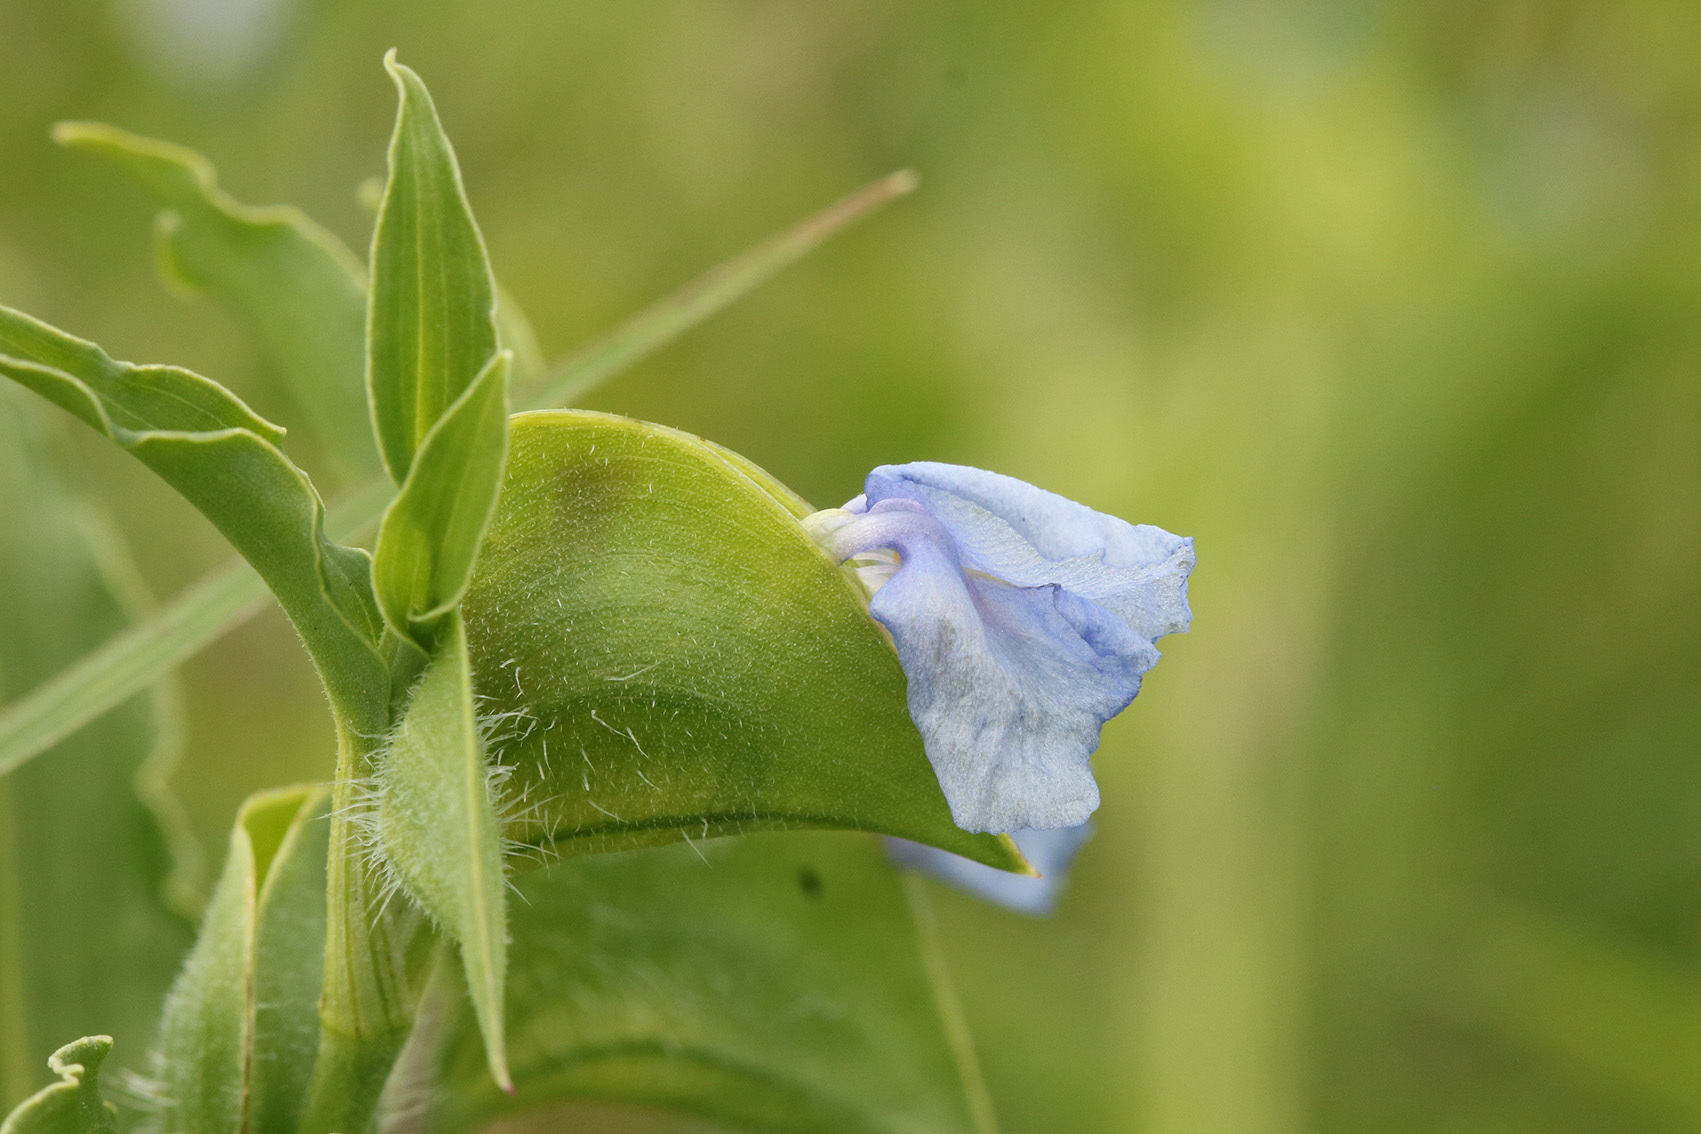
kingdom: Plantae
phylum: Tracheophyta
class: Liliopsida
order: Commelinales
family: Commelinaceae
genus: Commelina
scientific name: Commelina erecta
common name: Blousel blommetjie
